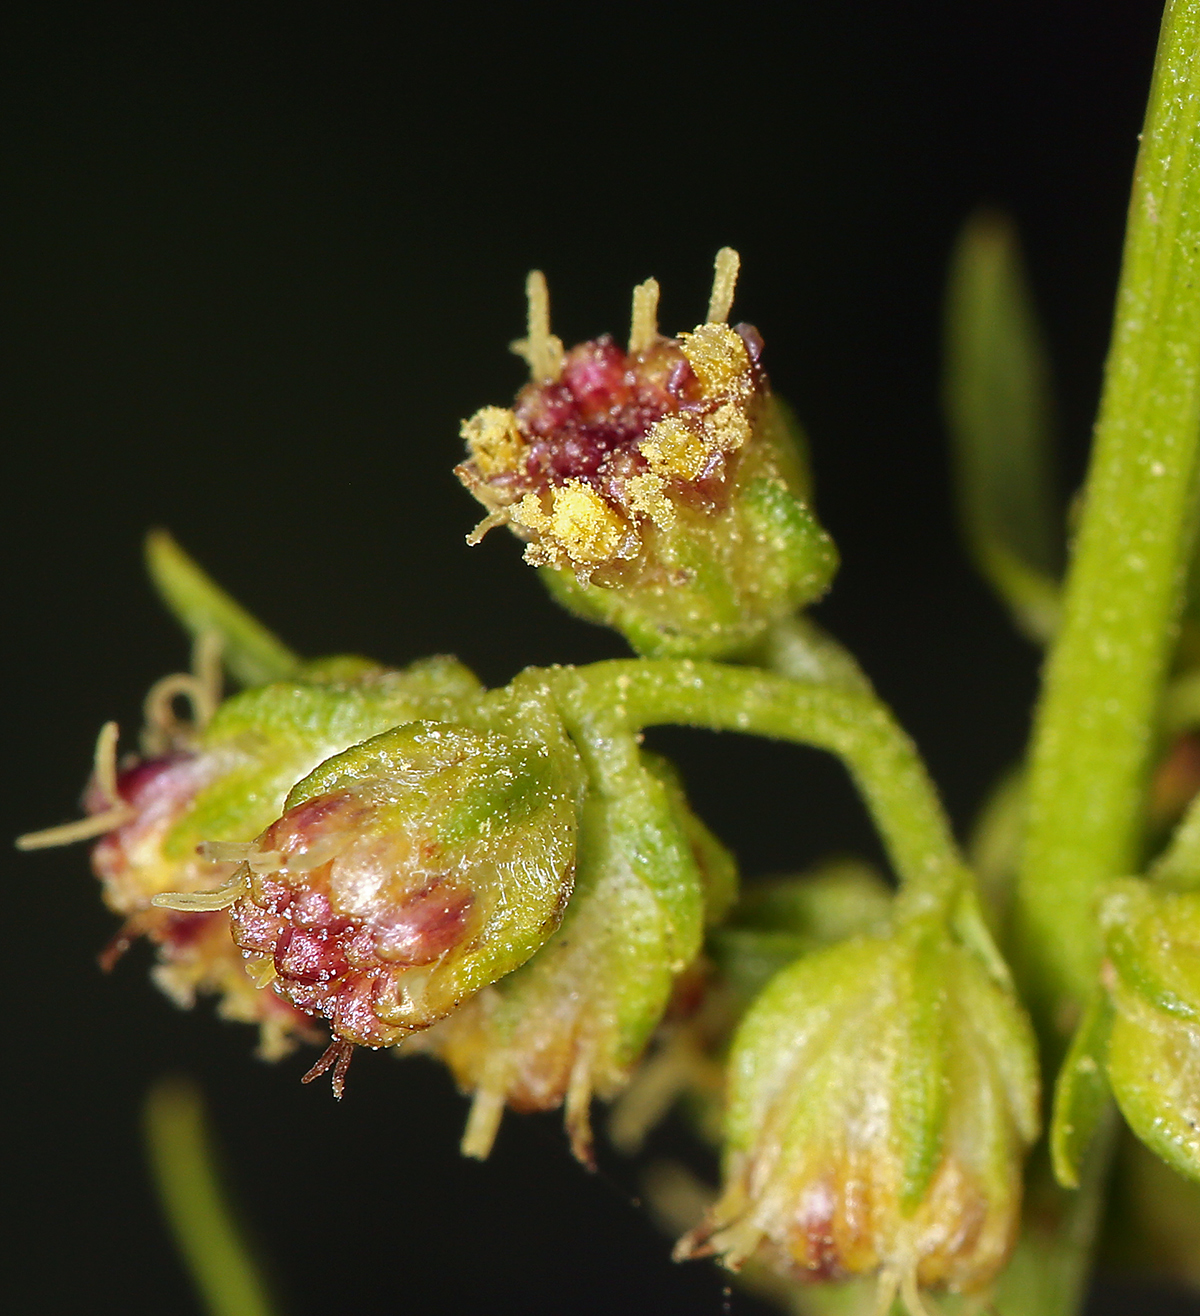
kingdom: Plantae
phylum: Tracheophyta
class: Magnoliopsida
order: Asterales
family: Asteraceae
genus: Artemisia
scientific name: Artemisia michauxiana
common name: Lemon sagewort
